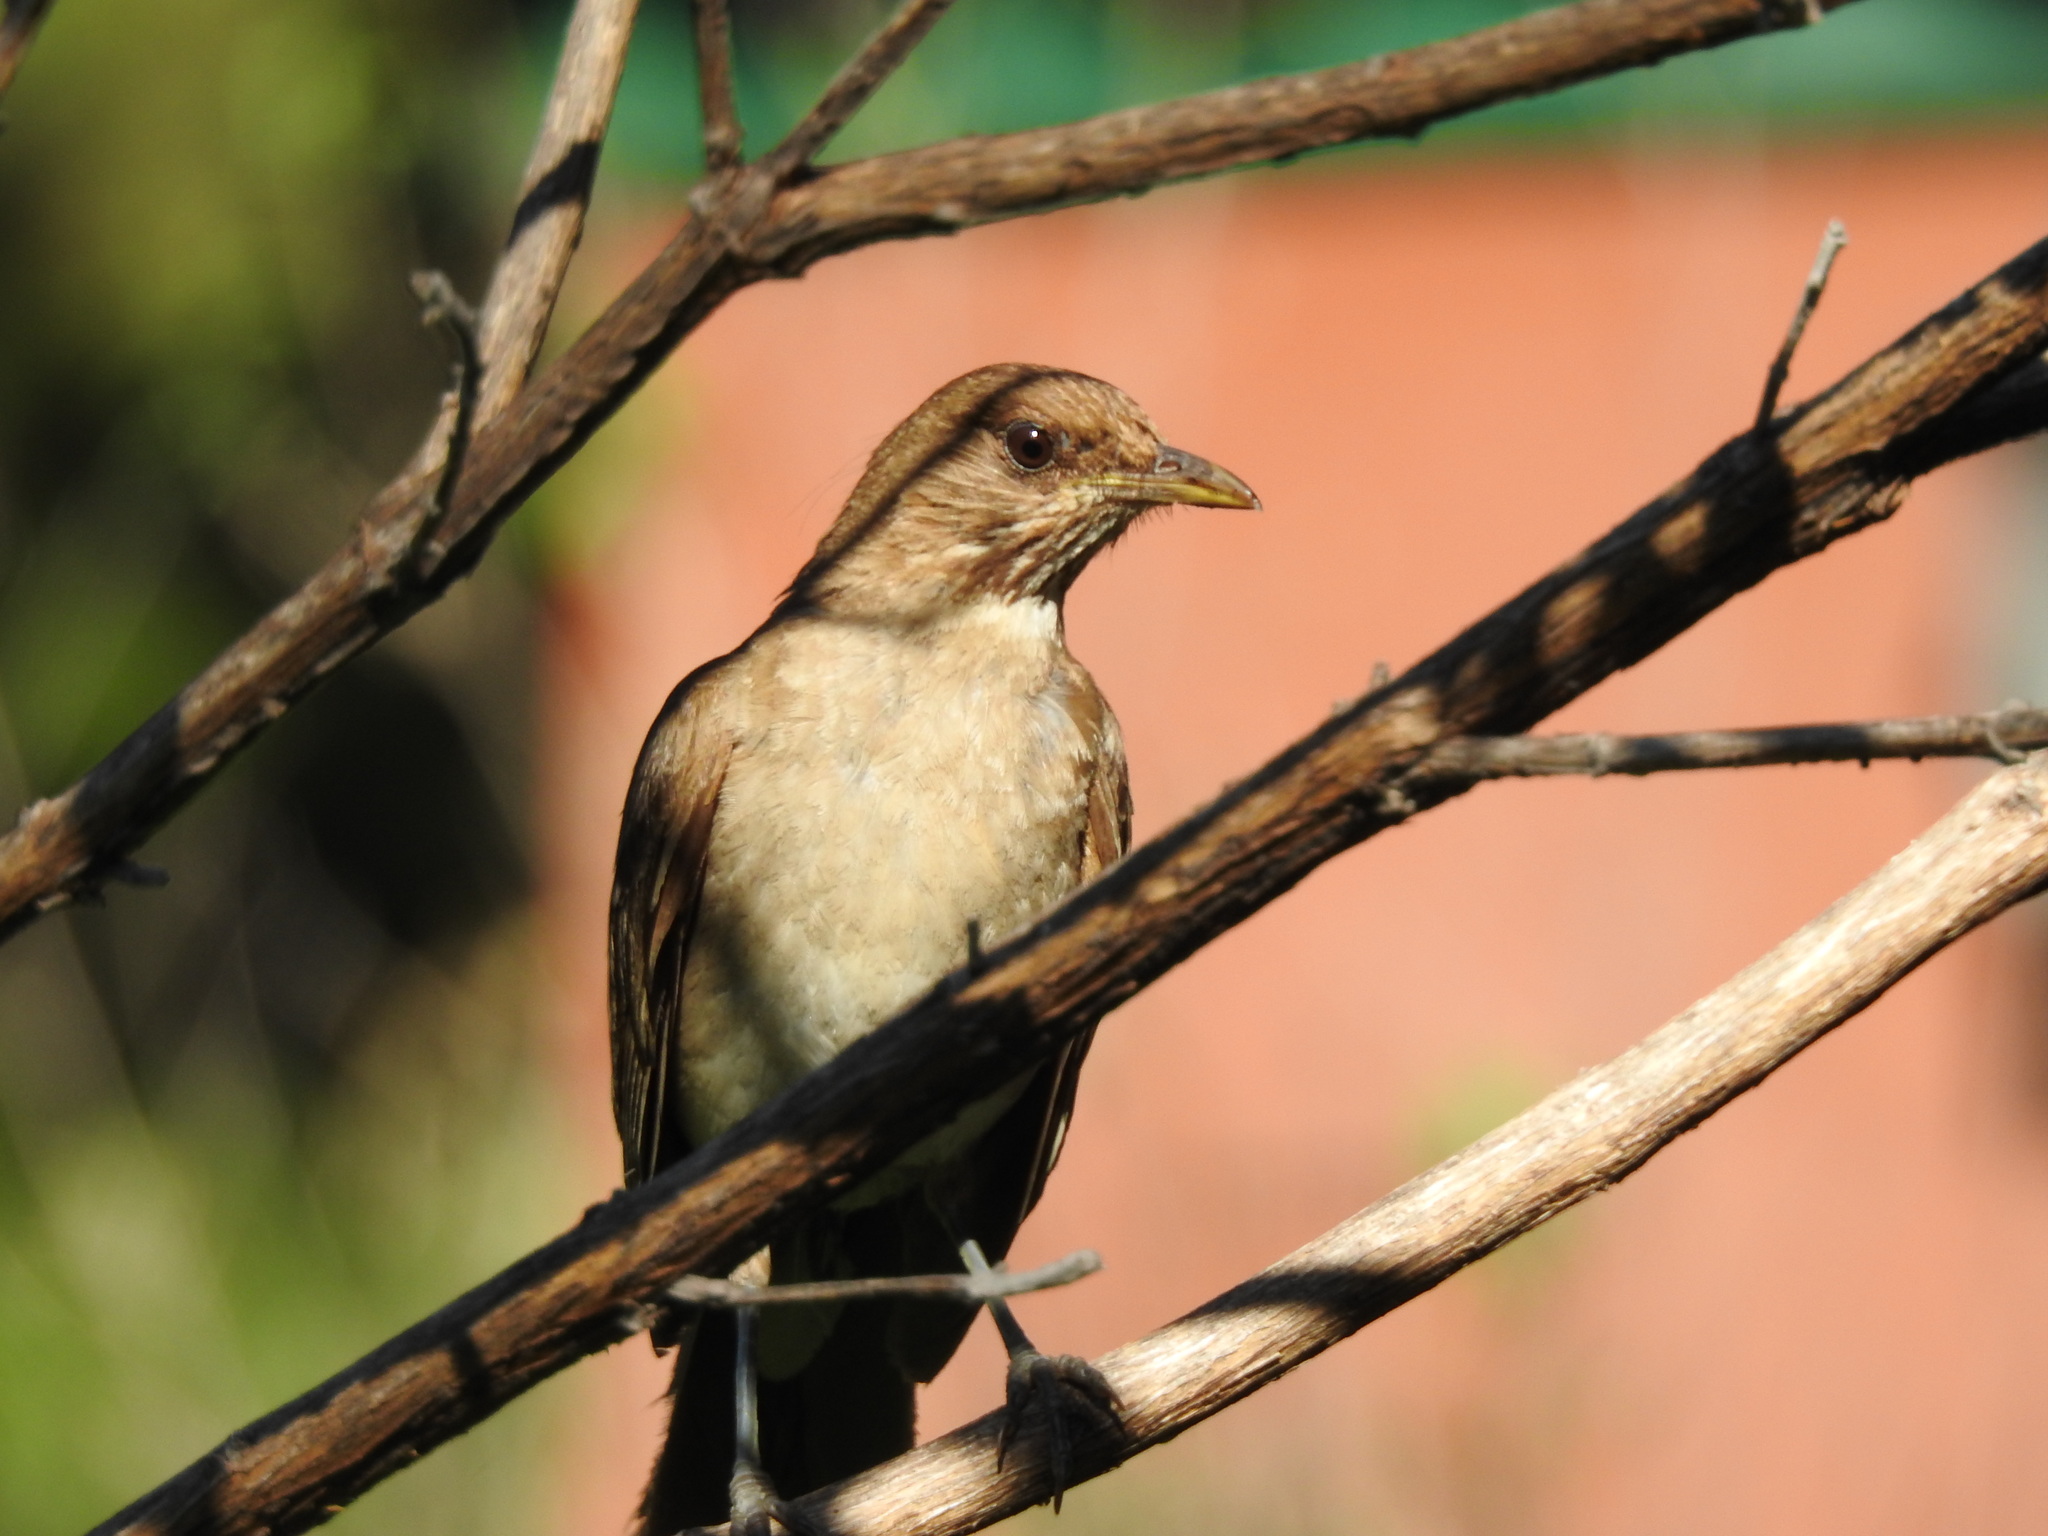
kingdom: Animalia
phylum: Chordata
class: Aves
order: Passeriformes
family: Turdidae
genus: Turdus
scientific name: Turdus amaurochalinus
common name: Creamy-bellied thrush
